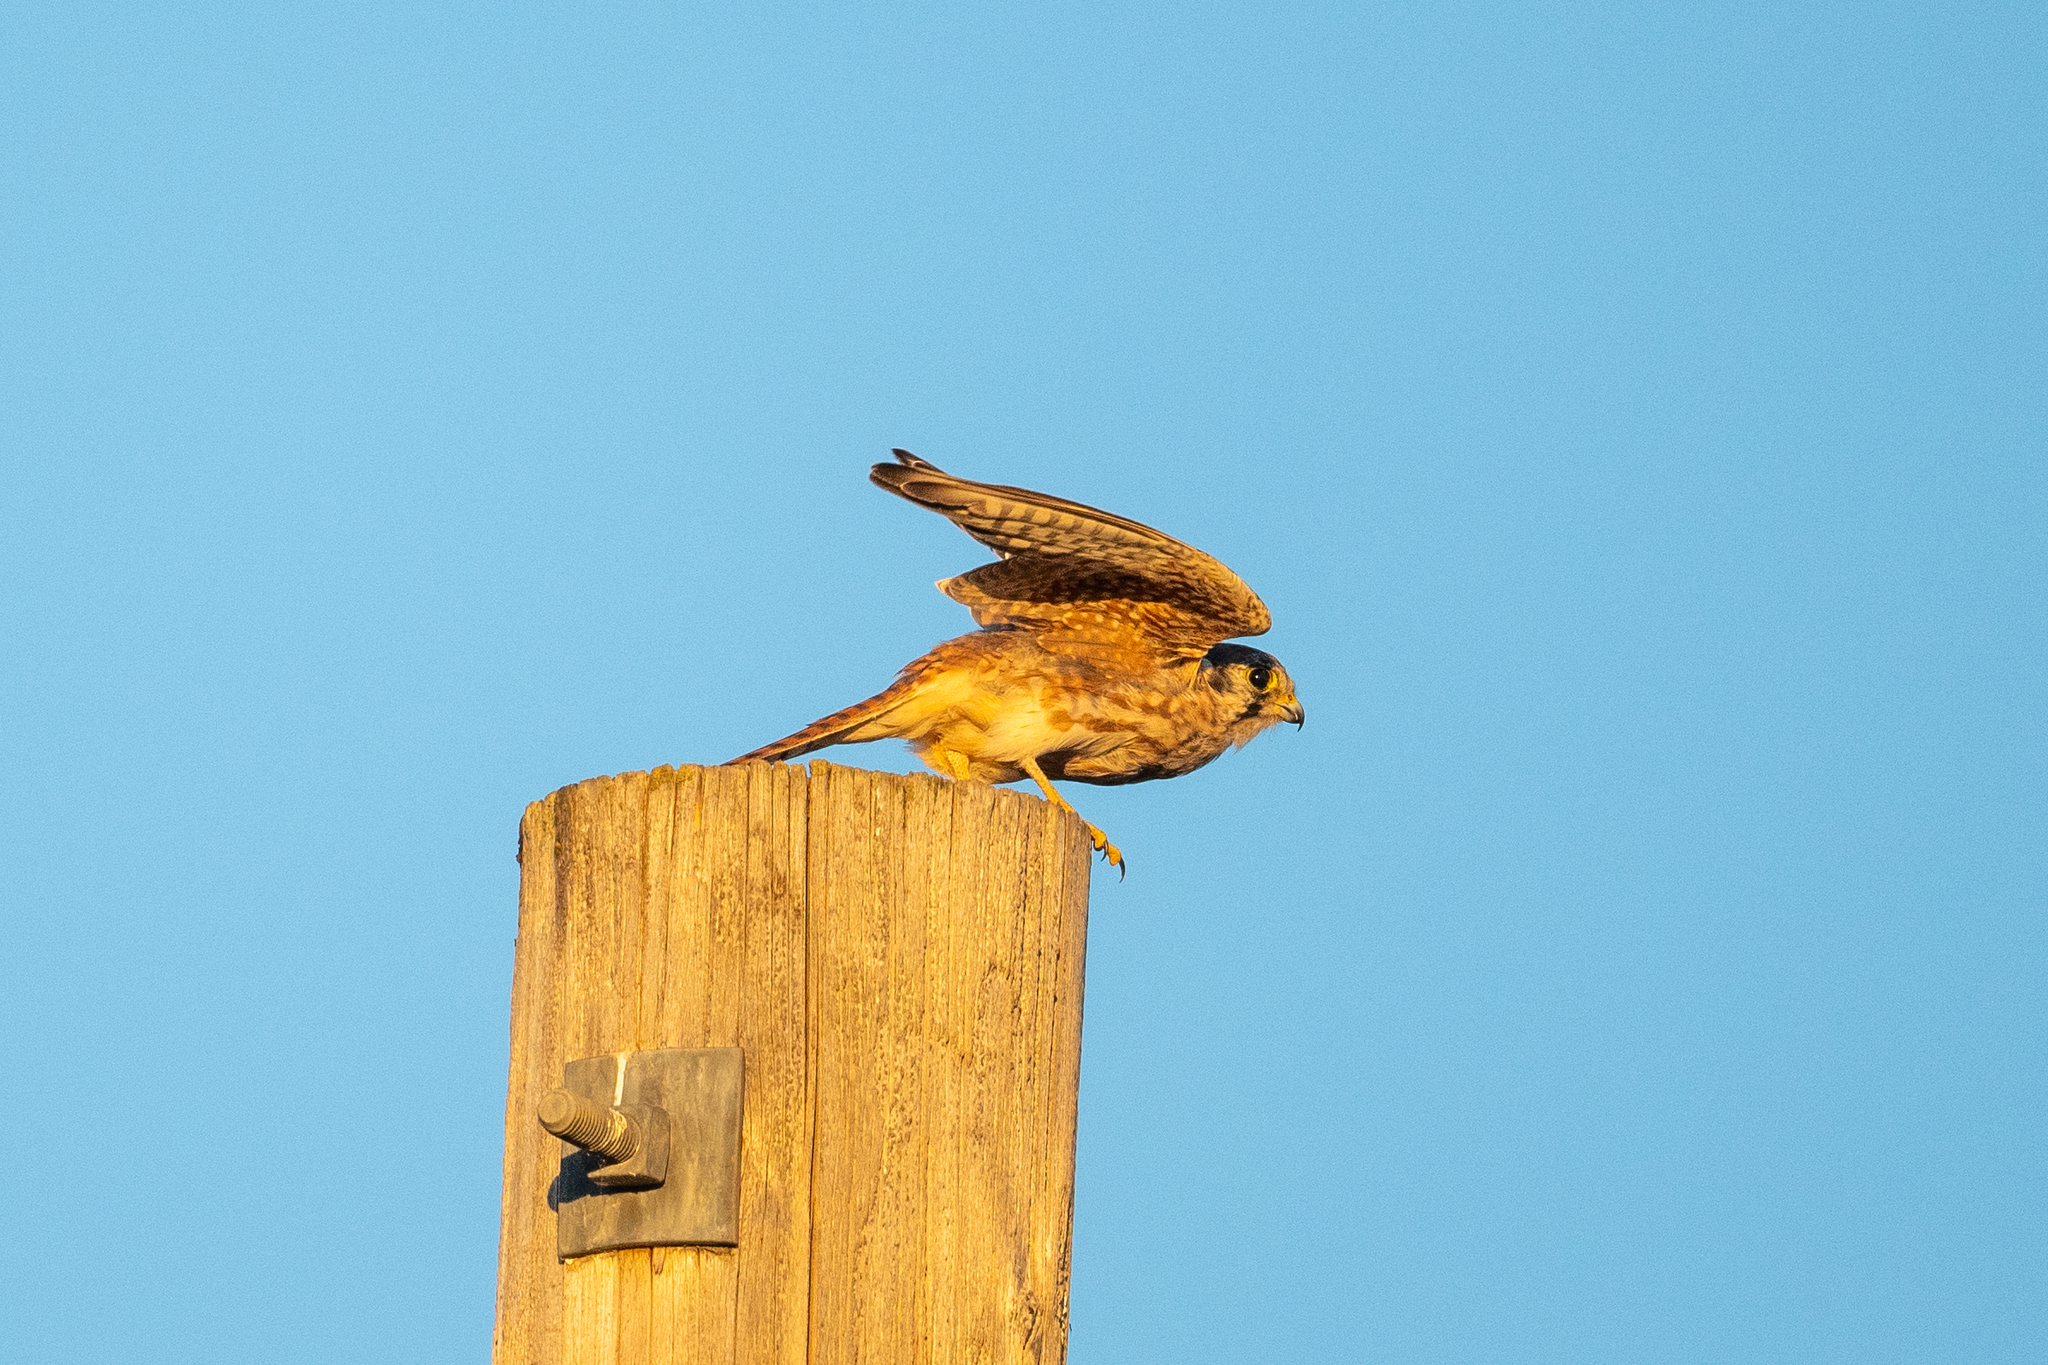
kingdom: Animalia
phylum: Chordata
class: Aves
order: Falconiformes
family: Falconidae
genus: Falco
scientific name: Falco sparverius
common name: American kestrel
